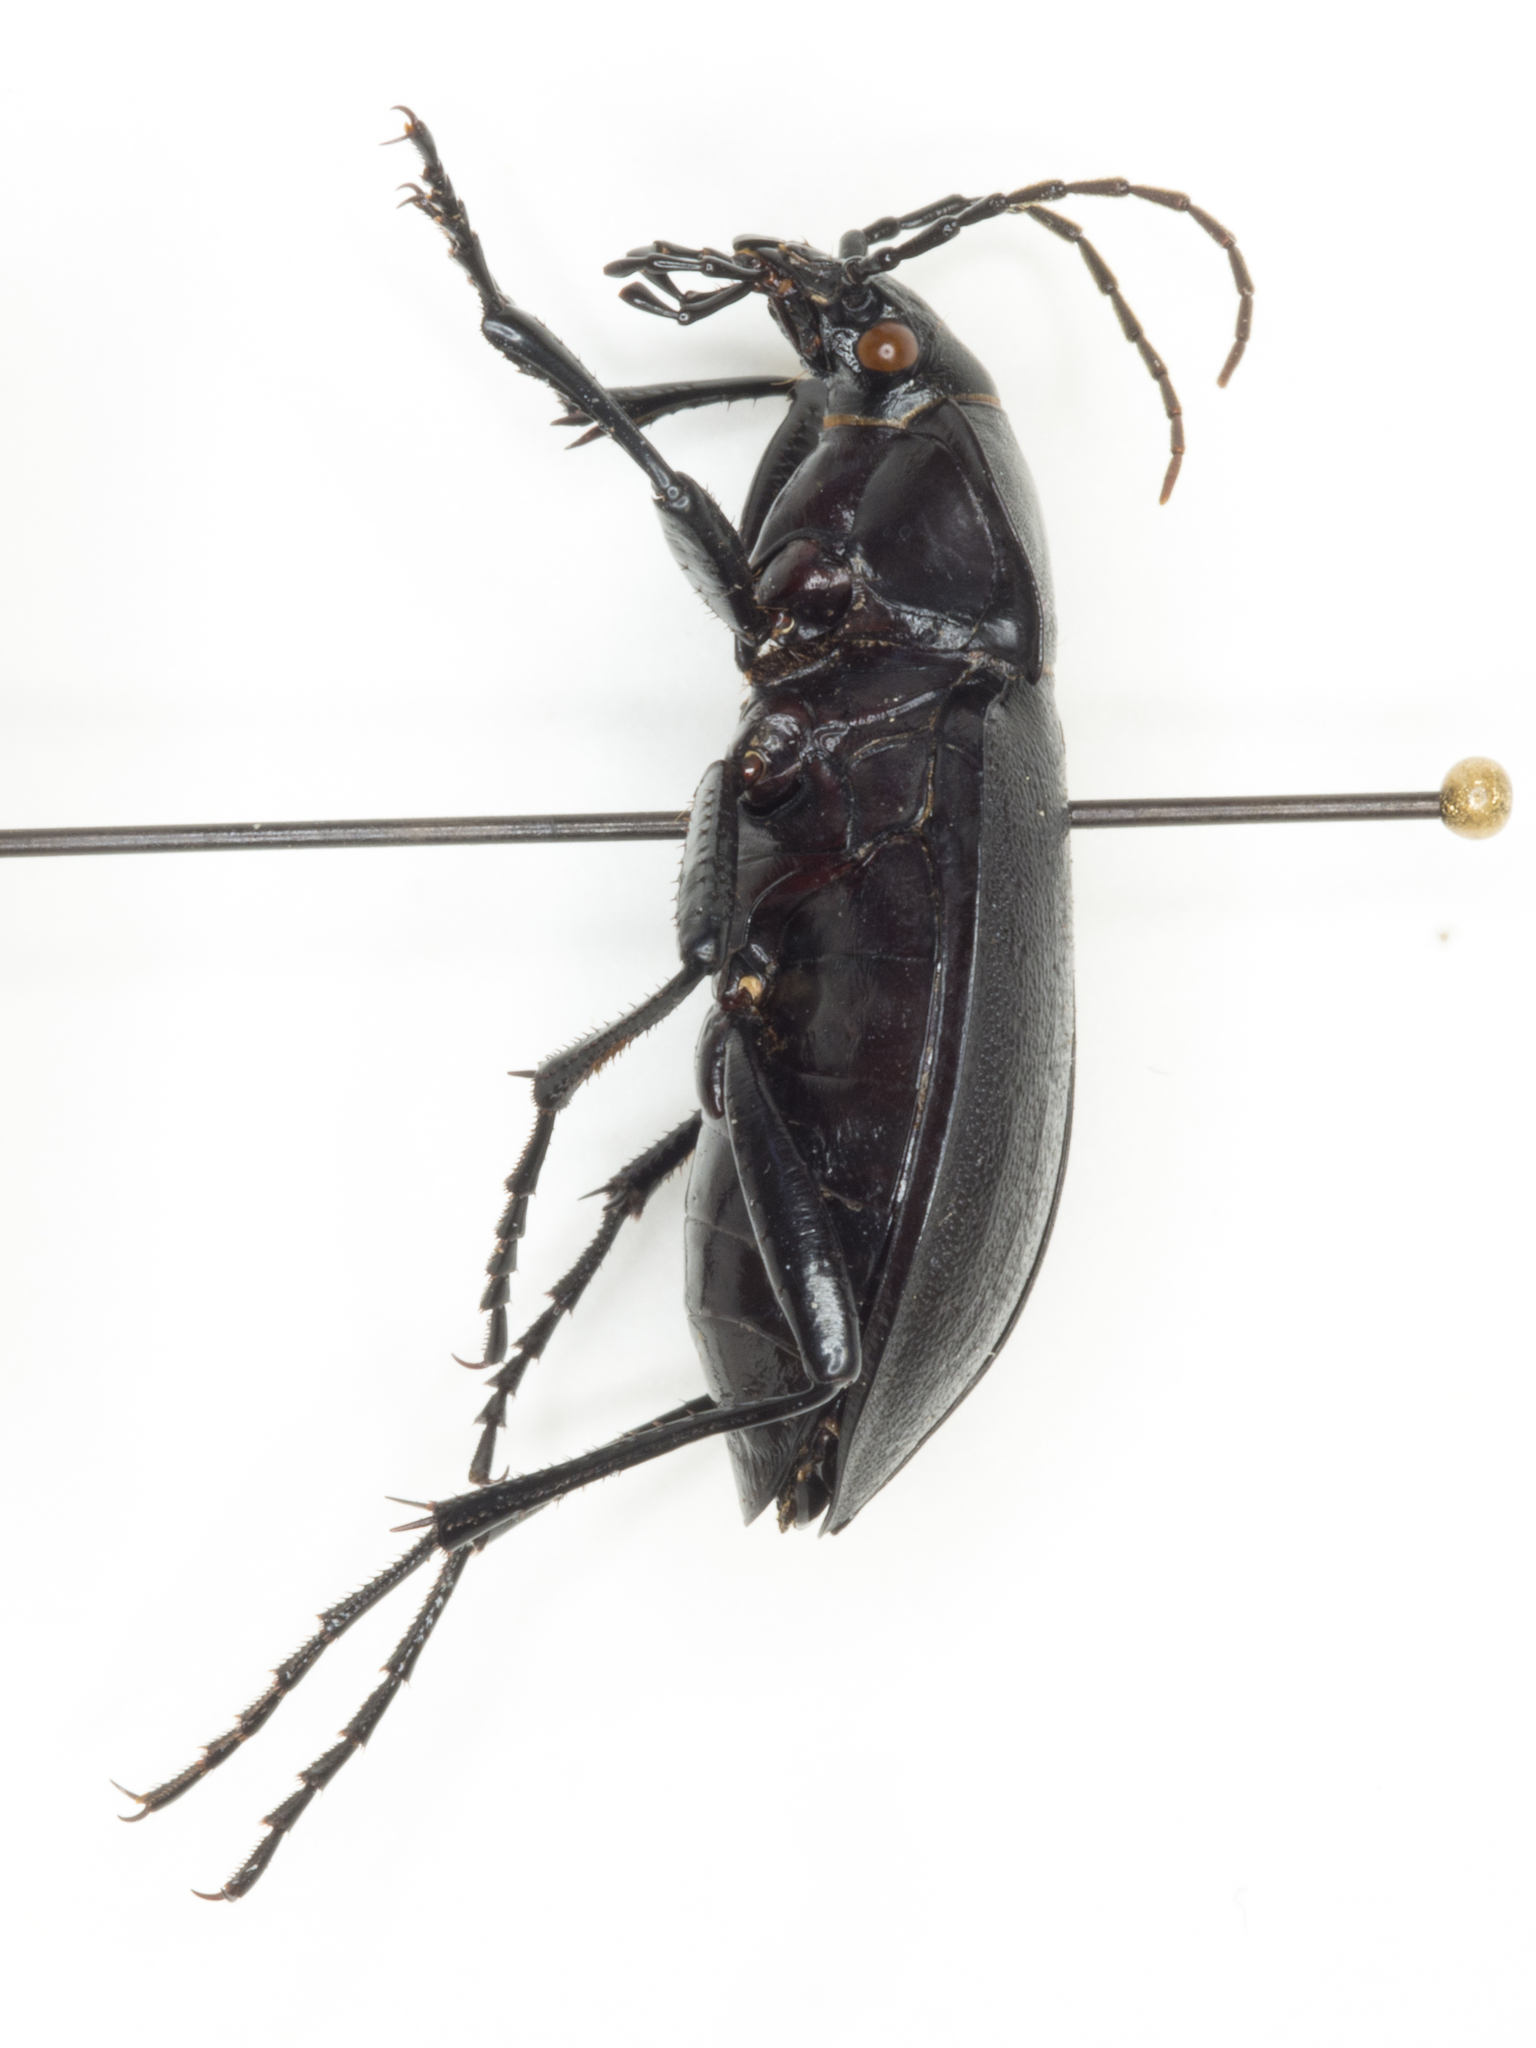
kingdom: Animalia
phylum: Arthropoda
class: Insecta
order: Coleoptera
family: Carabidae
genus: Carabus
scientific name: Carabus taedatus
